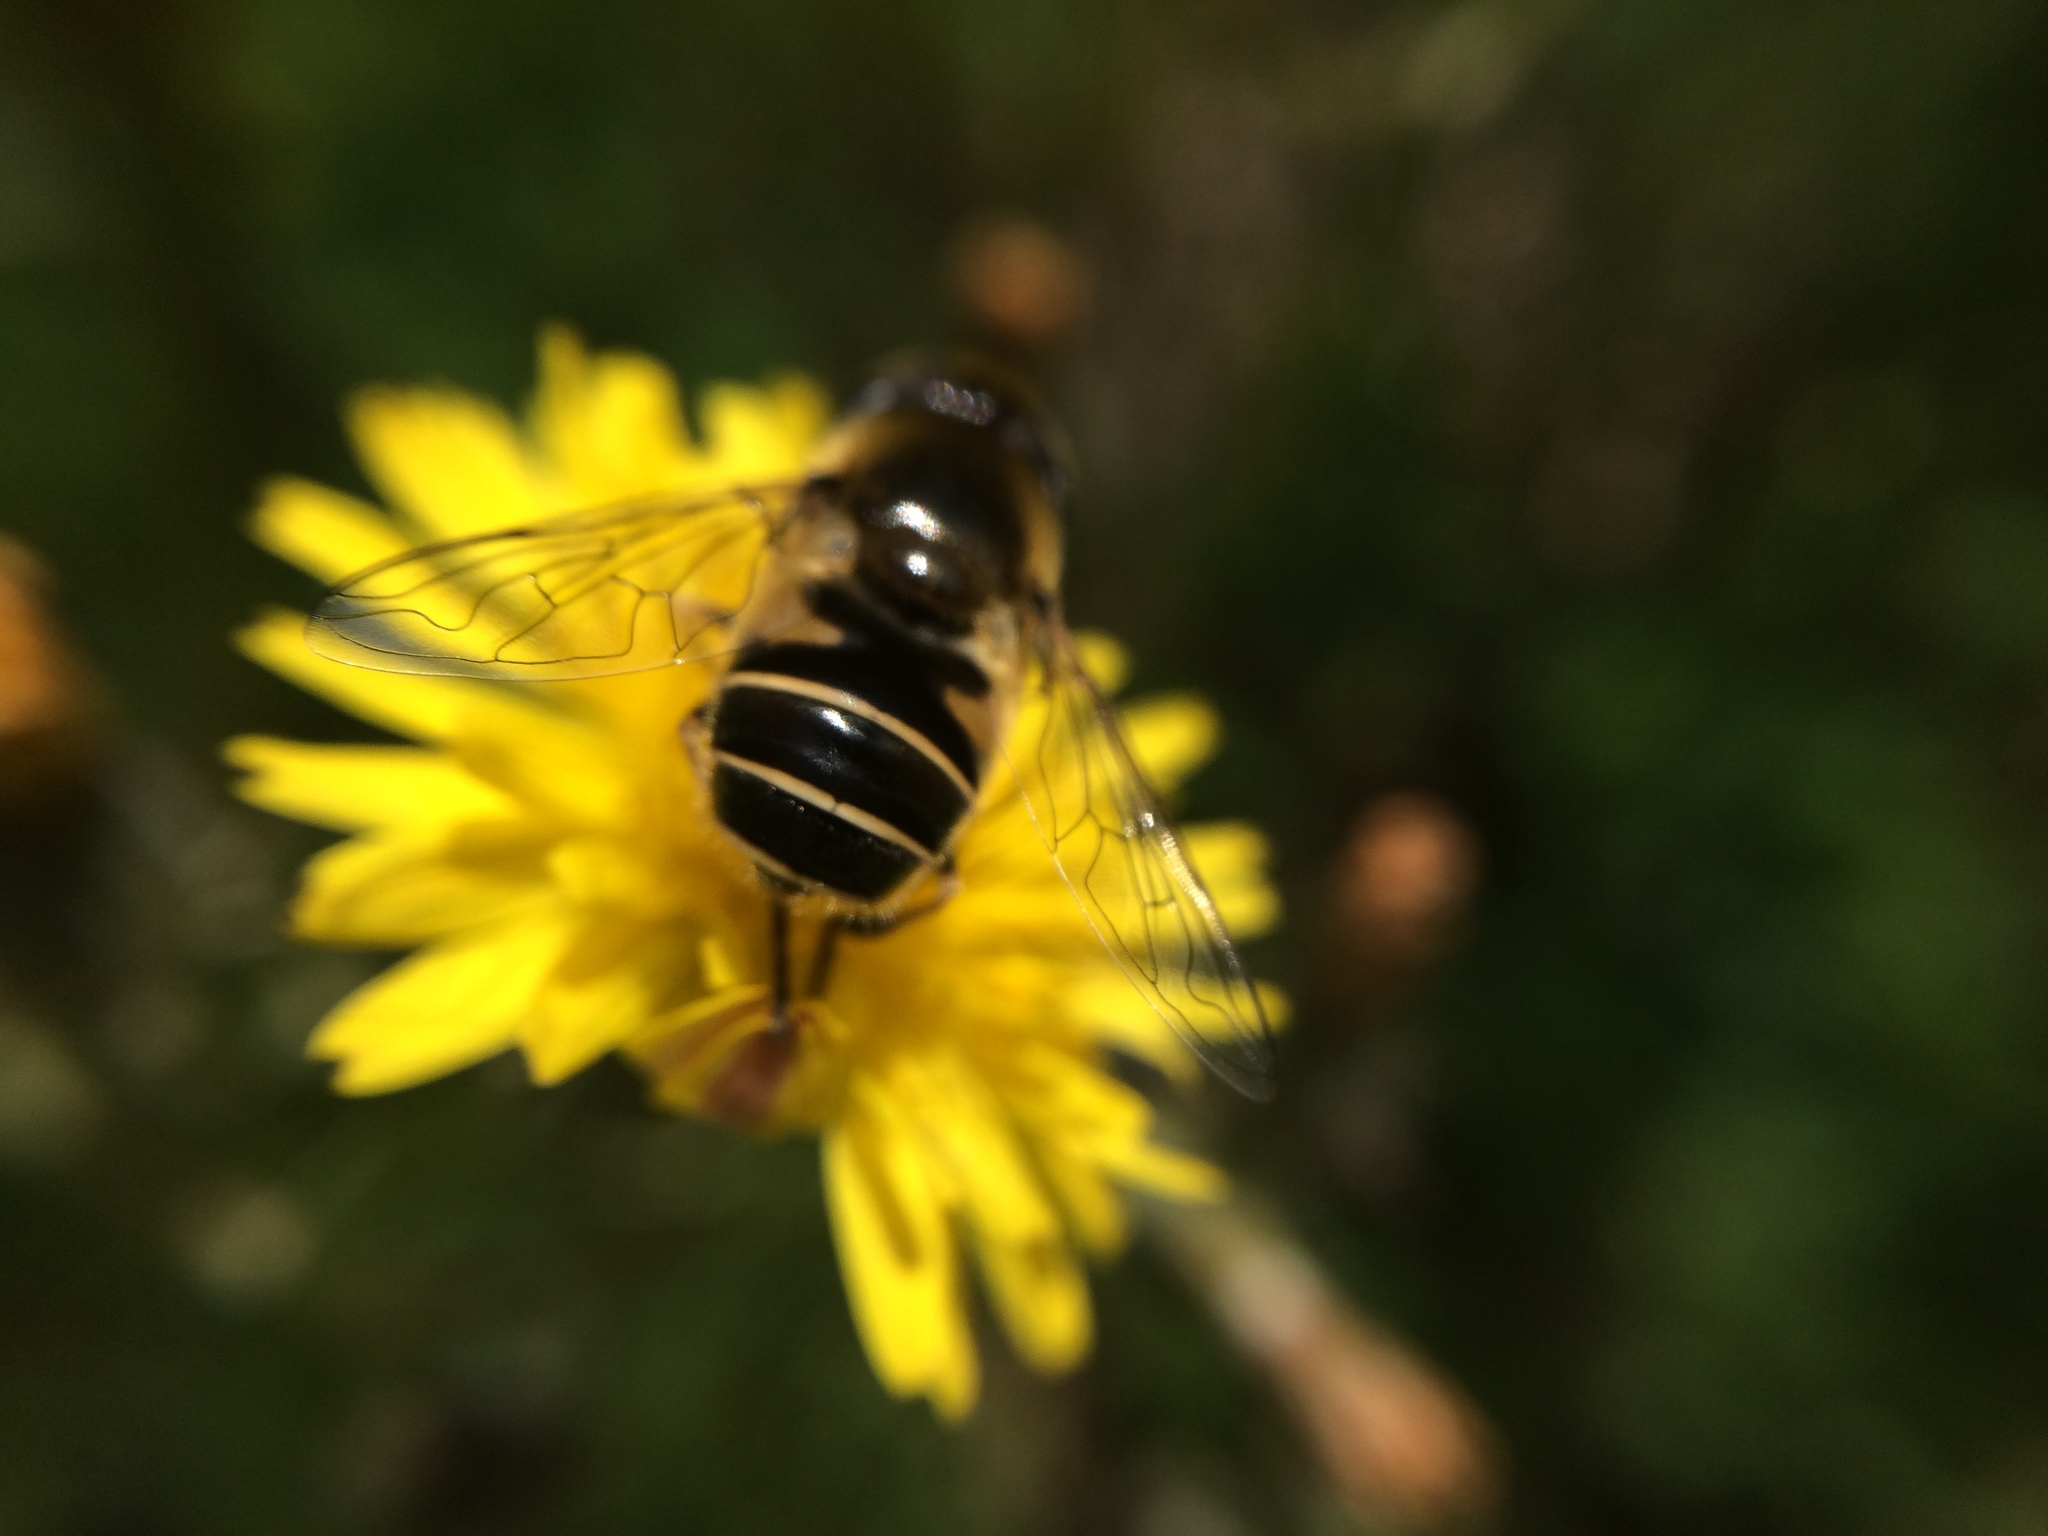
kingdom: Animalia
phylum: Arthropoda
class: Insecta
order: Diptera
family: Syrphidae
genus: Eristalis
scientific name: Eristalis hirta
